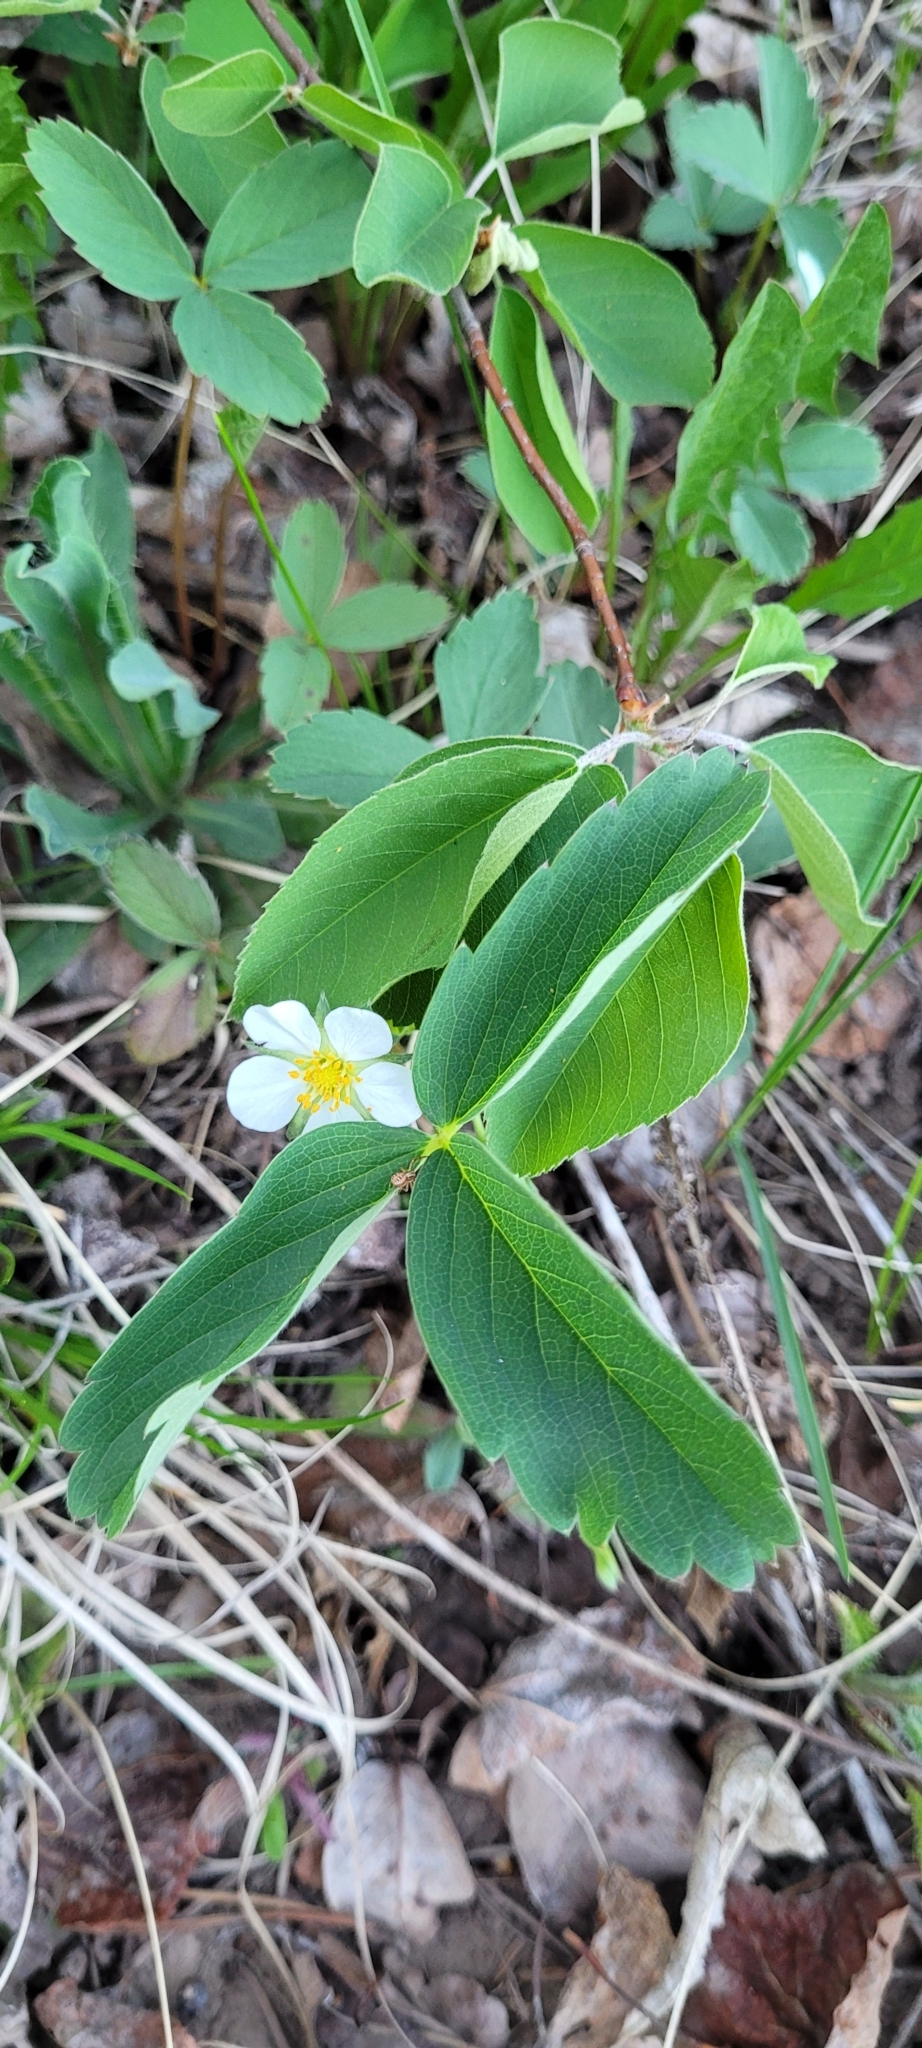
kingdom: Plantae
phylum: Tracheophyta
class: Magnoliopsida
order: Rosales
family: Rosaceae
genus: Fragaria
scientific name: Fragaria virginiana
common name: Thickleaved wild strawberry
